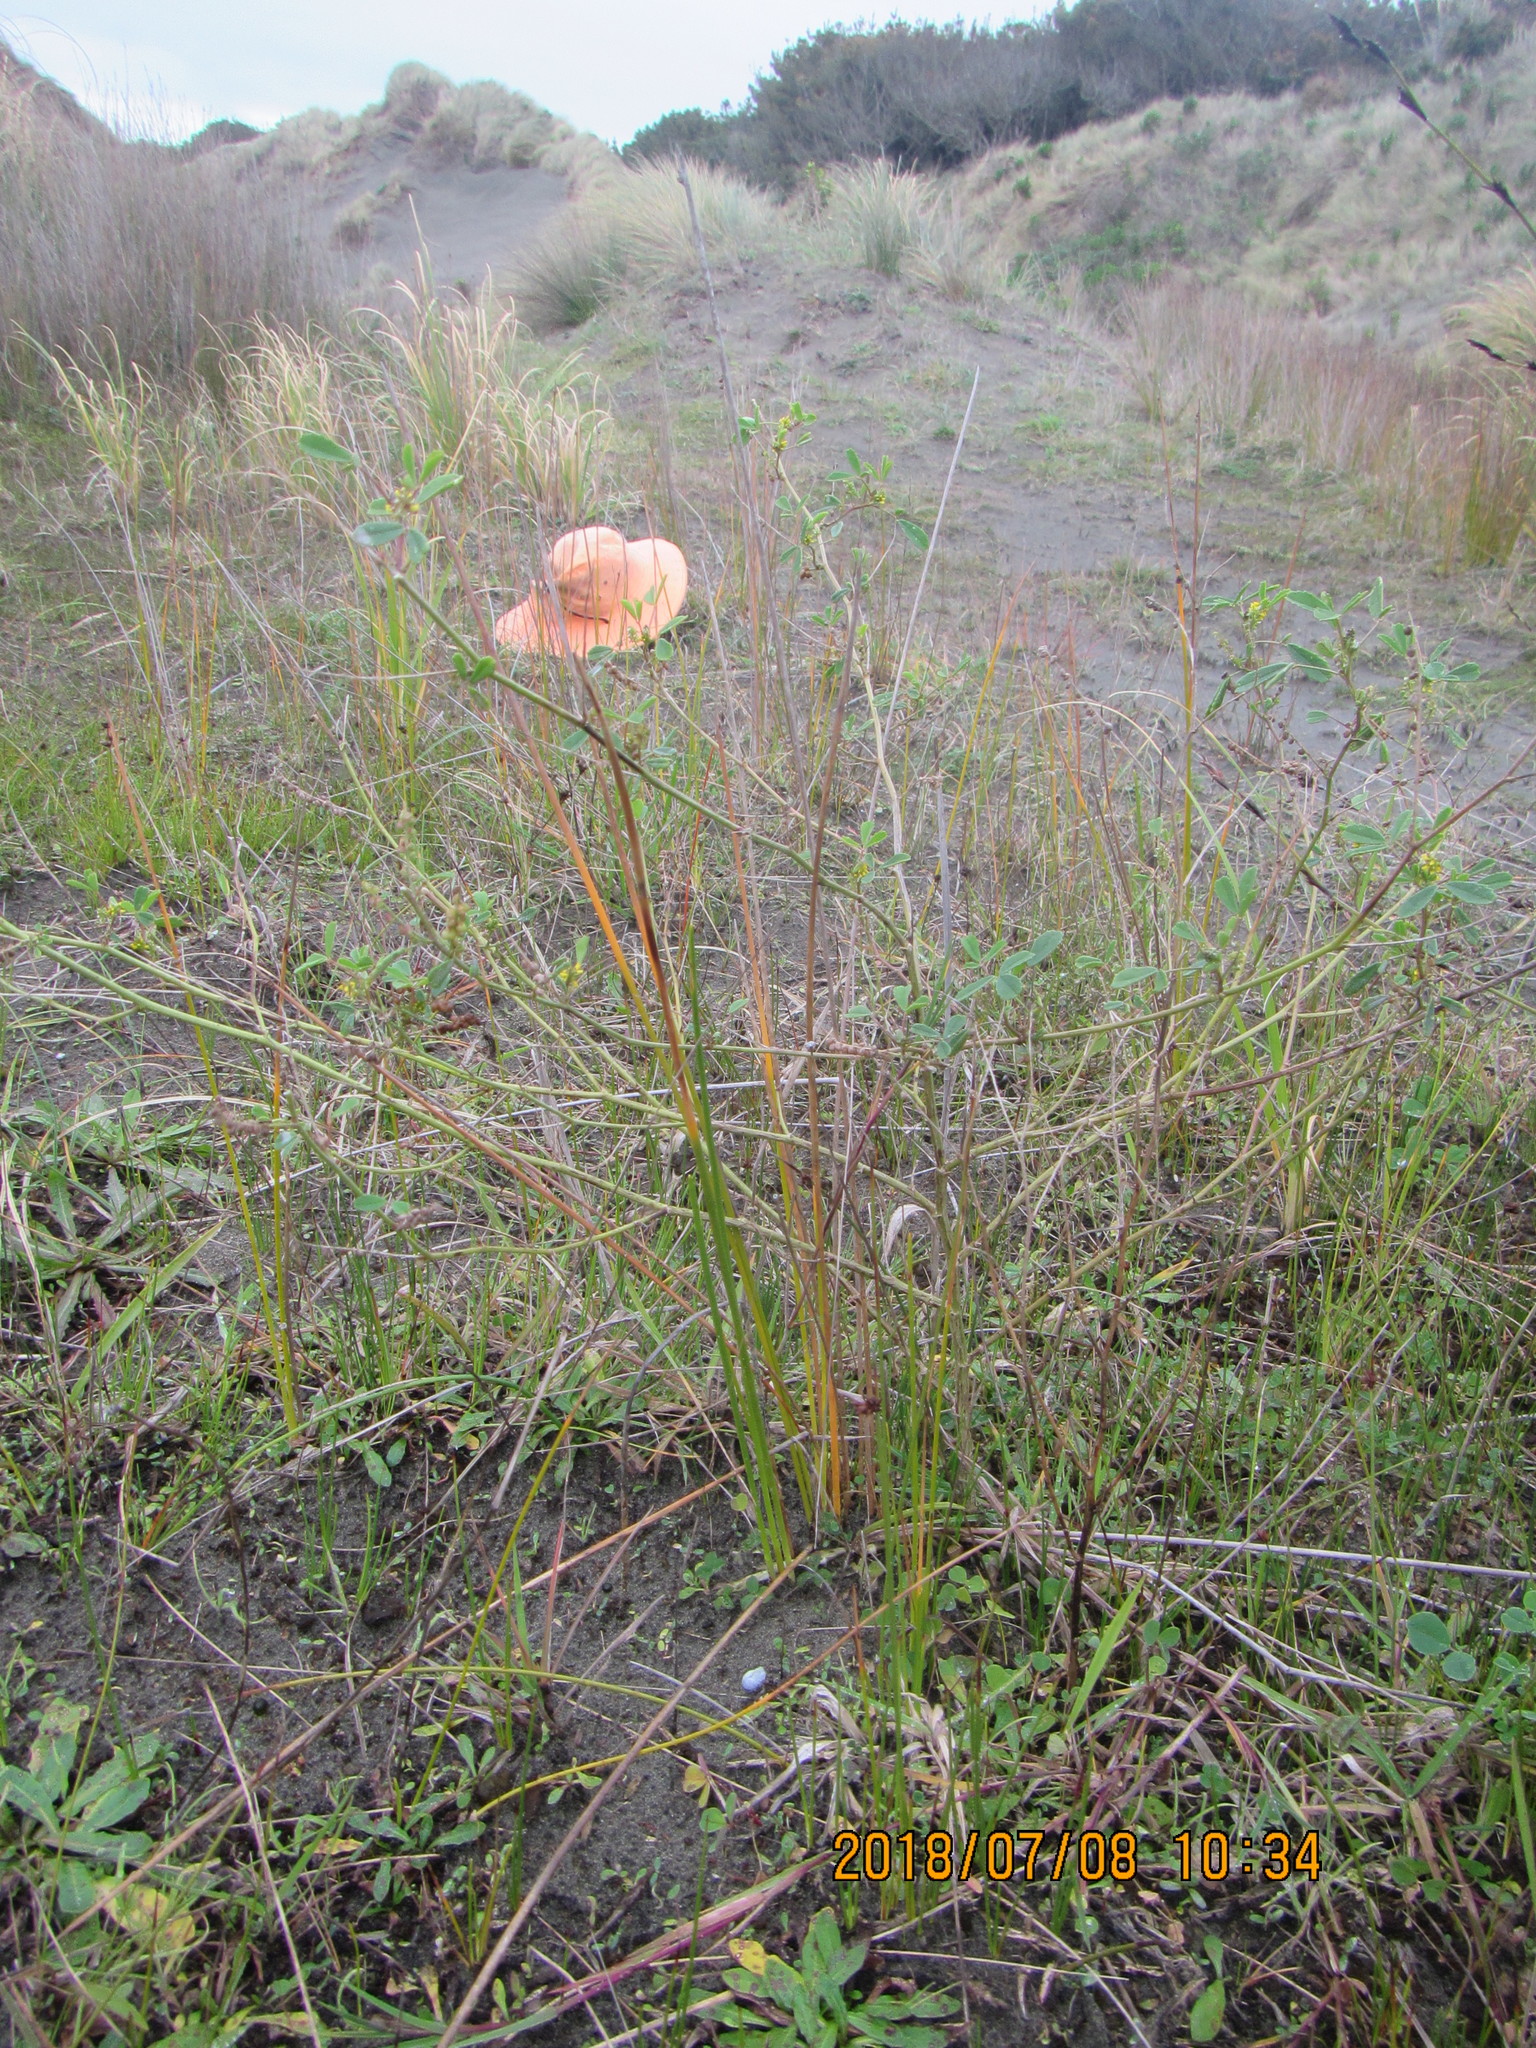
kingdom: Plantae
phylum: Tracheophyta
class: Magnoliopsida
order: Fabales
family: Fabaceae
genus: Melilotus
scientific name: Melilotus indicus
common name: Small melilot
